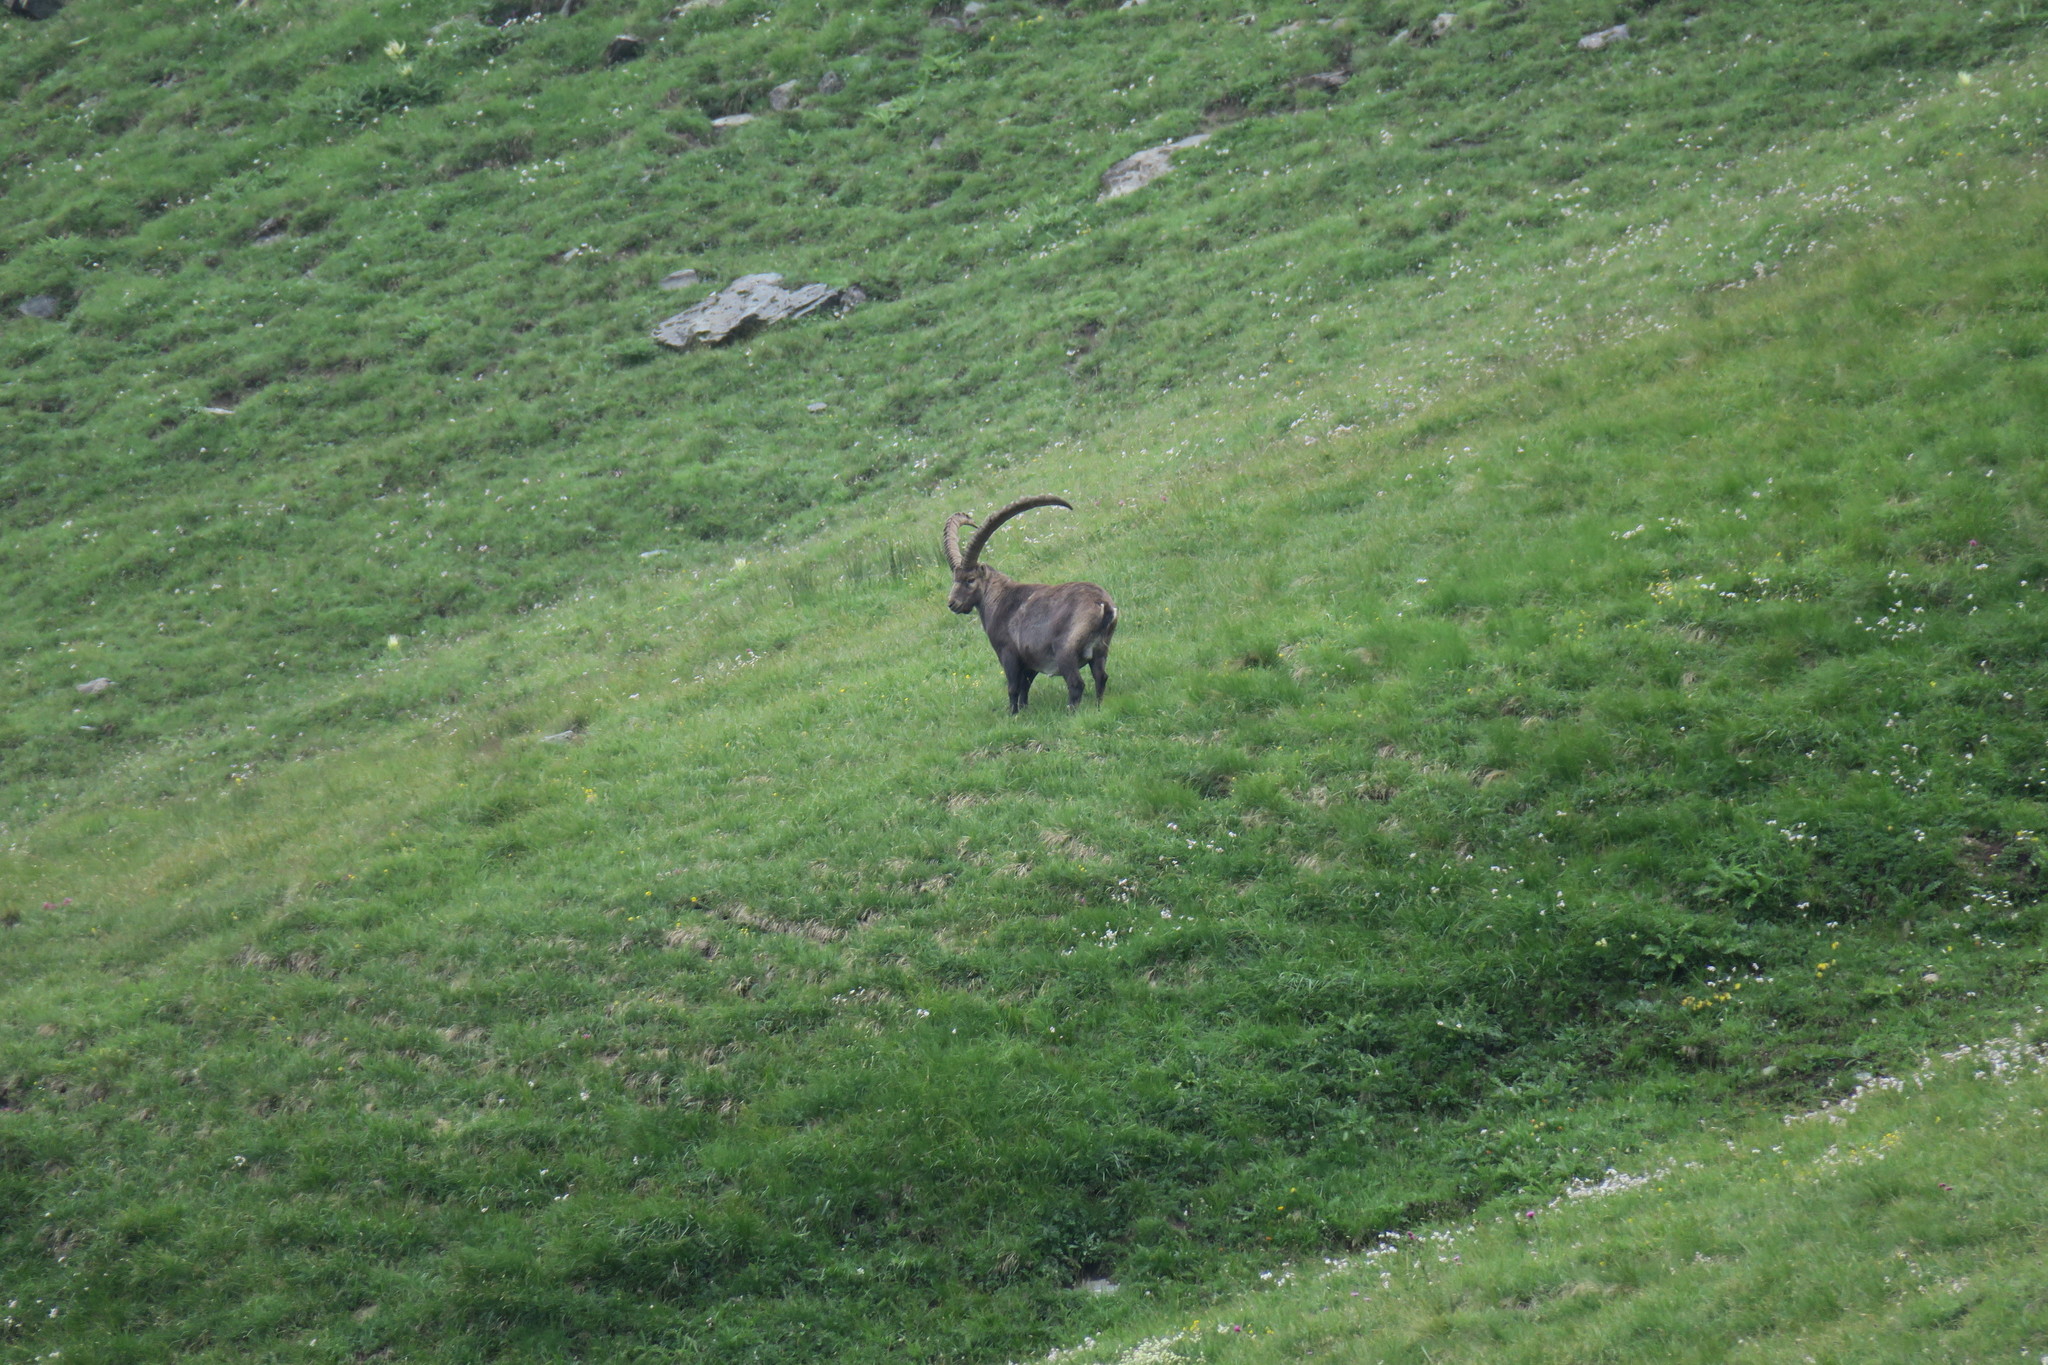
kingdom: Animalia
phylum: Chordata
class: Mammalia
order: Artiodactyla
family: Bovidae
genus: Capra
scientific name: Capra ibex
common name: Alpine ibex
